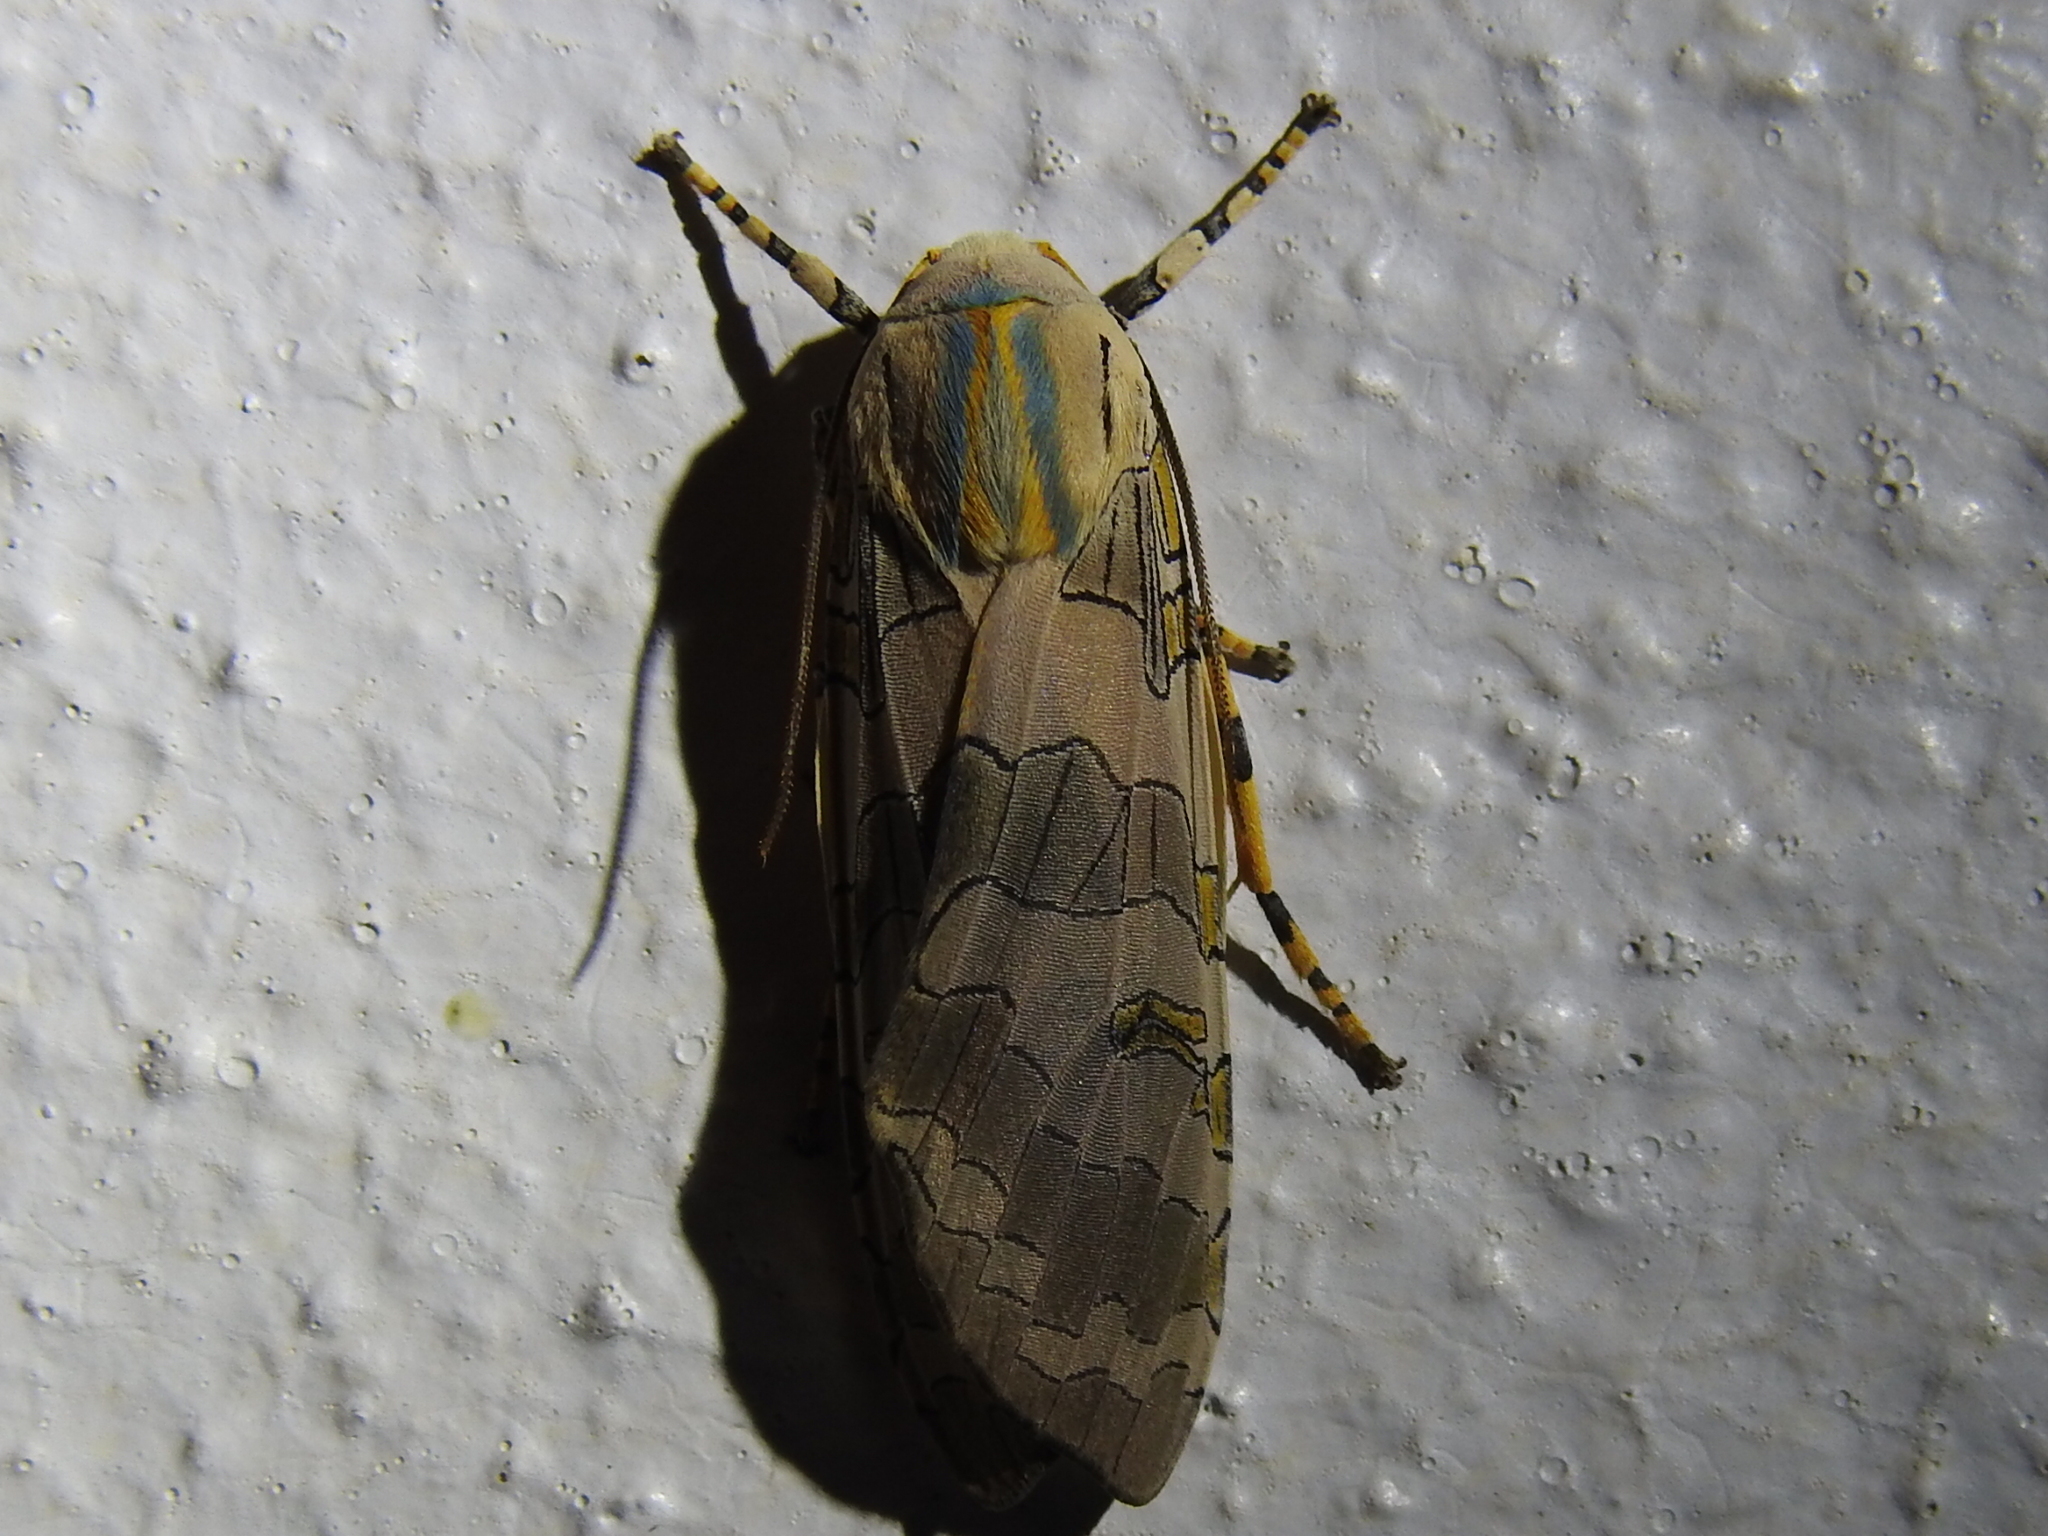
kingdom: Animalia
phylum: Arthropoda
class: Insecta
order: Lepidoptera
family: Erebidae
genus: Halysidota
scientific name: Halysidota schausi
